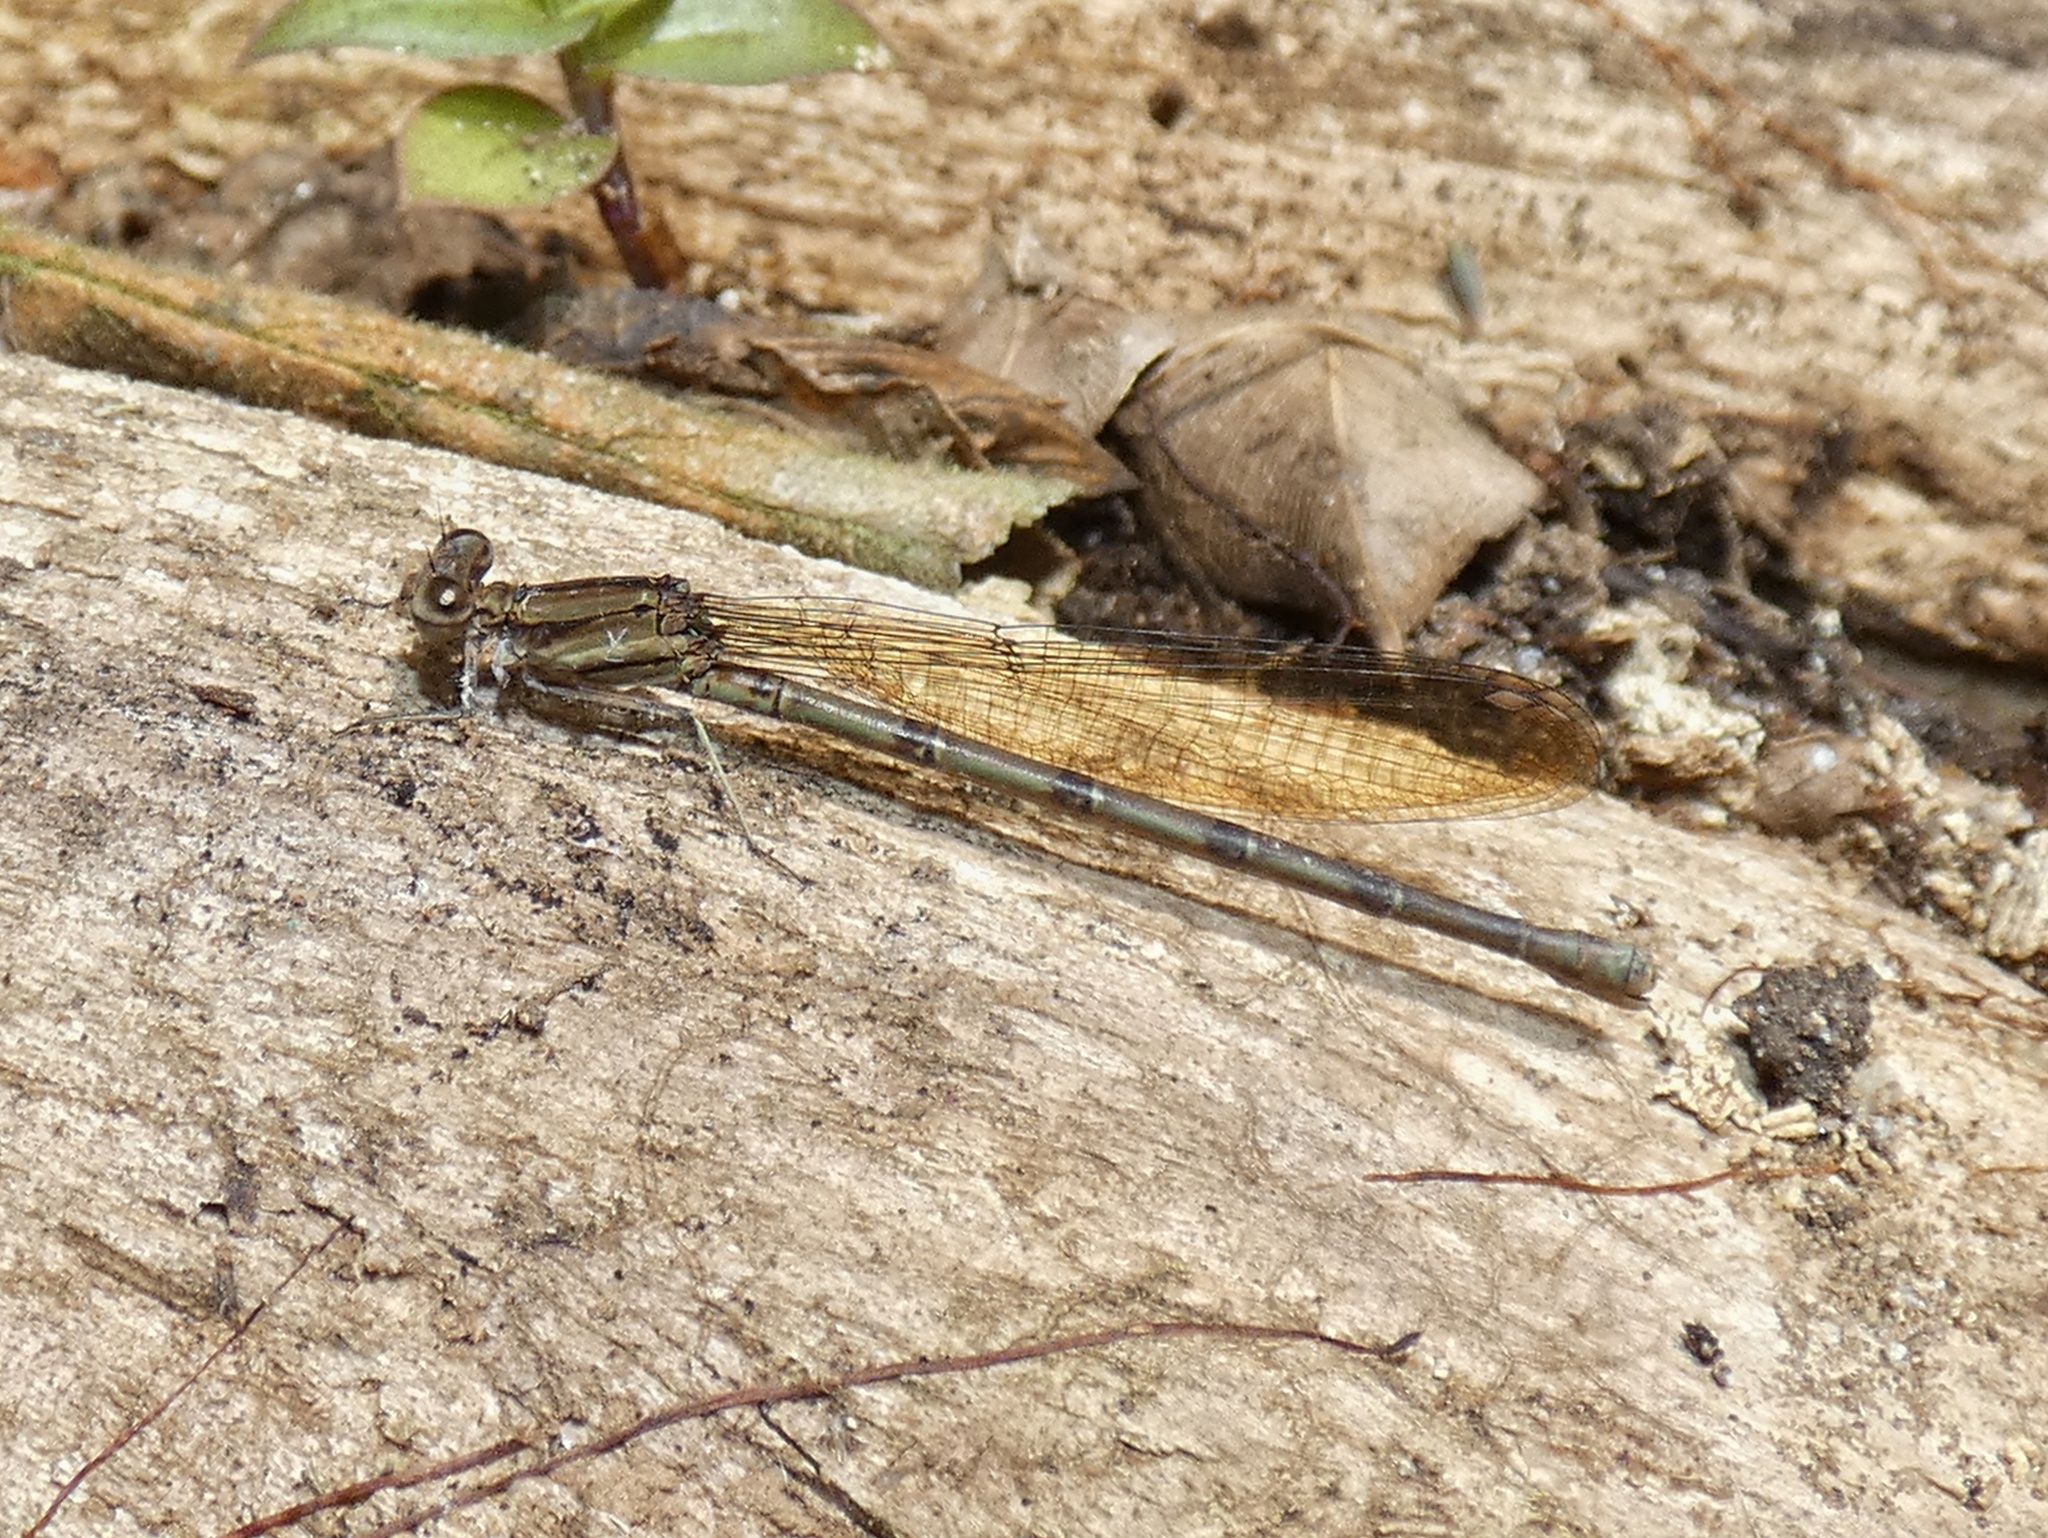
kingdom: Animalia
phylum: Arthropoda
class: Insecta
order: Odonata
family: Coenagrionidae
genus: Argia
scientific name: Argia fissa
